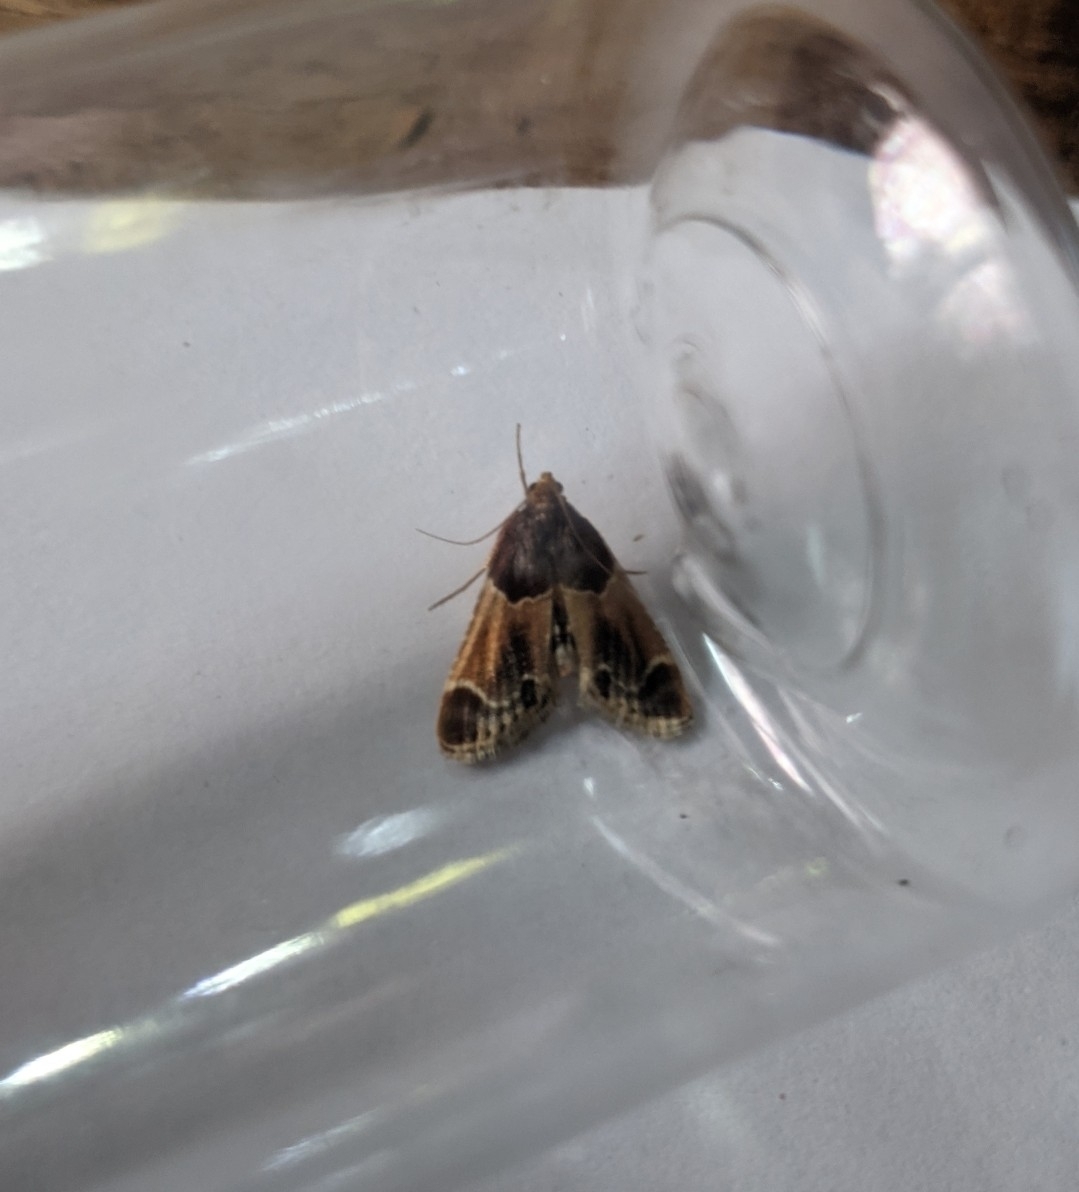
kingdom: Animalia
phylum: Arthropoda
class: Insecta
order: Lepidoptera
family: Pyralidae
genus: Pyralis
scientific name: Pyralis farinalis
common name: Meal moth
